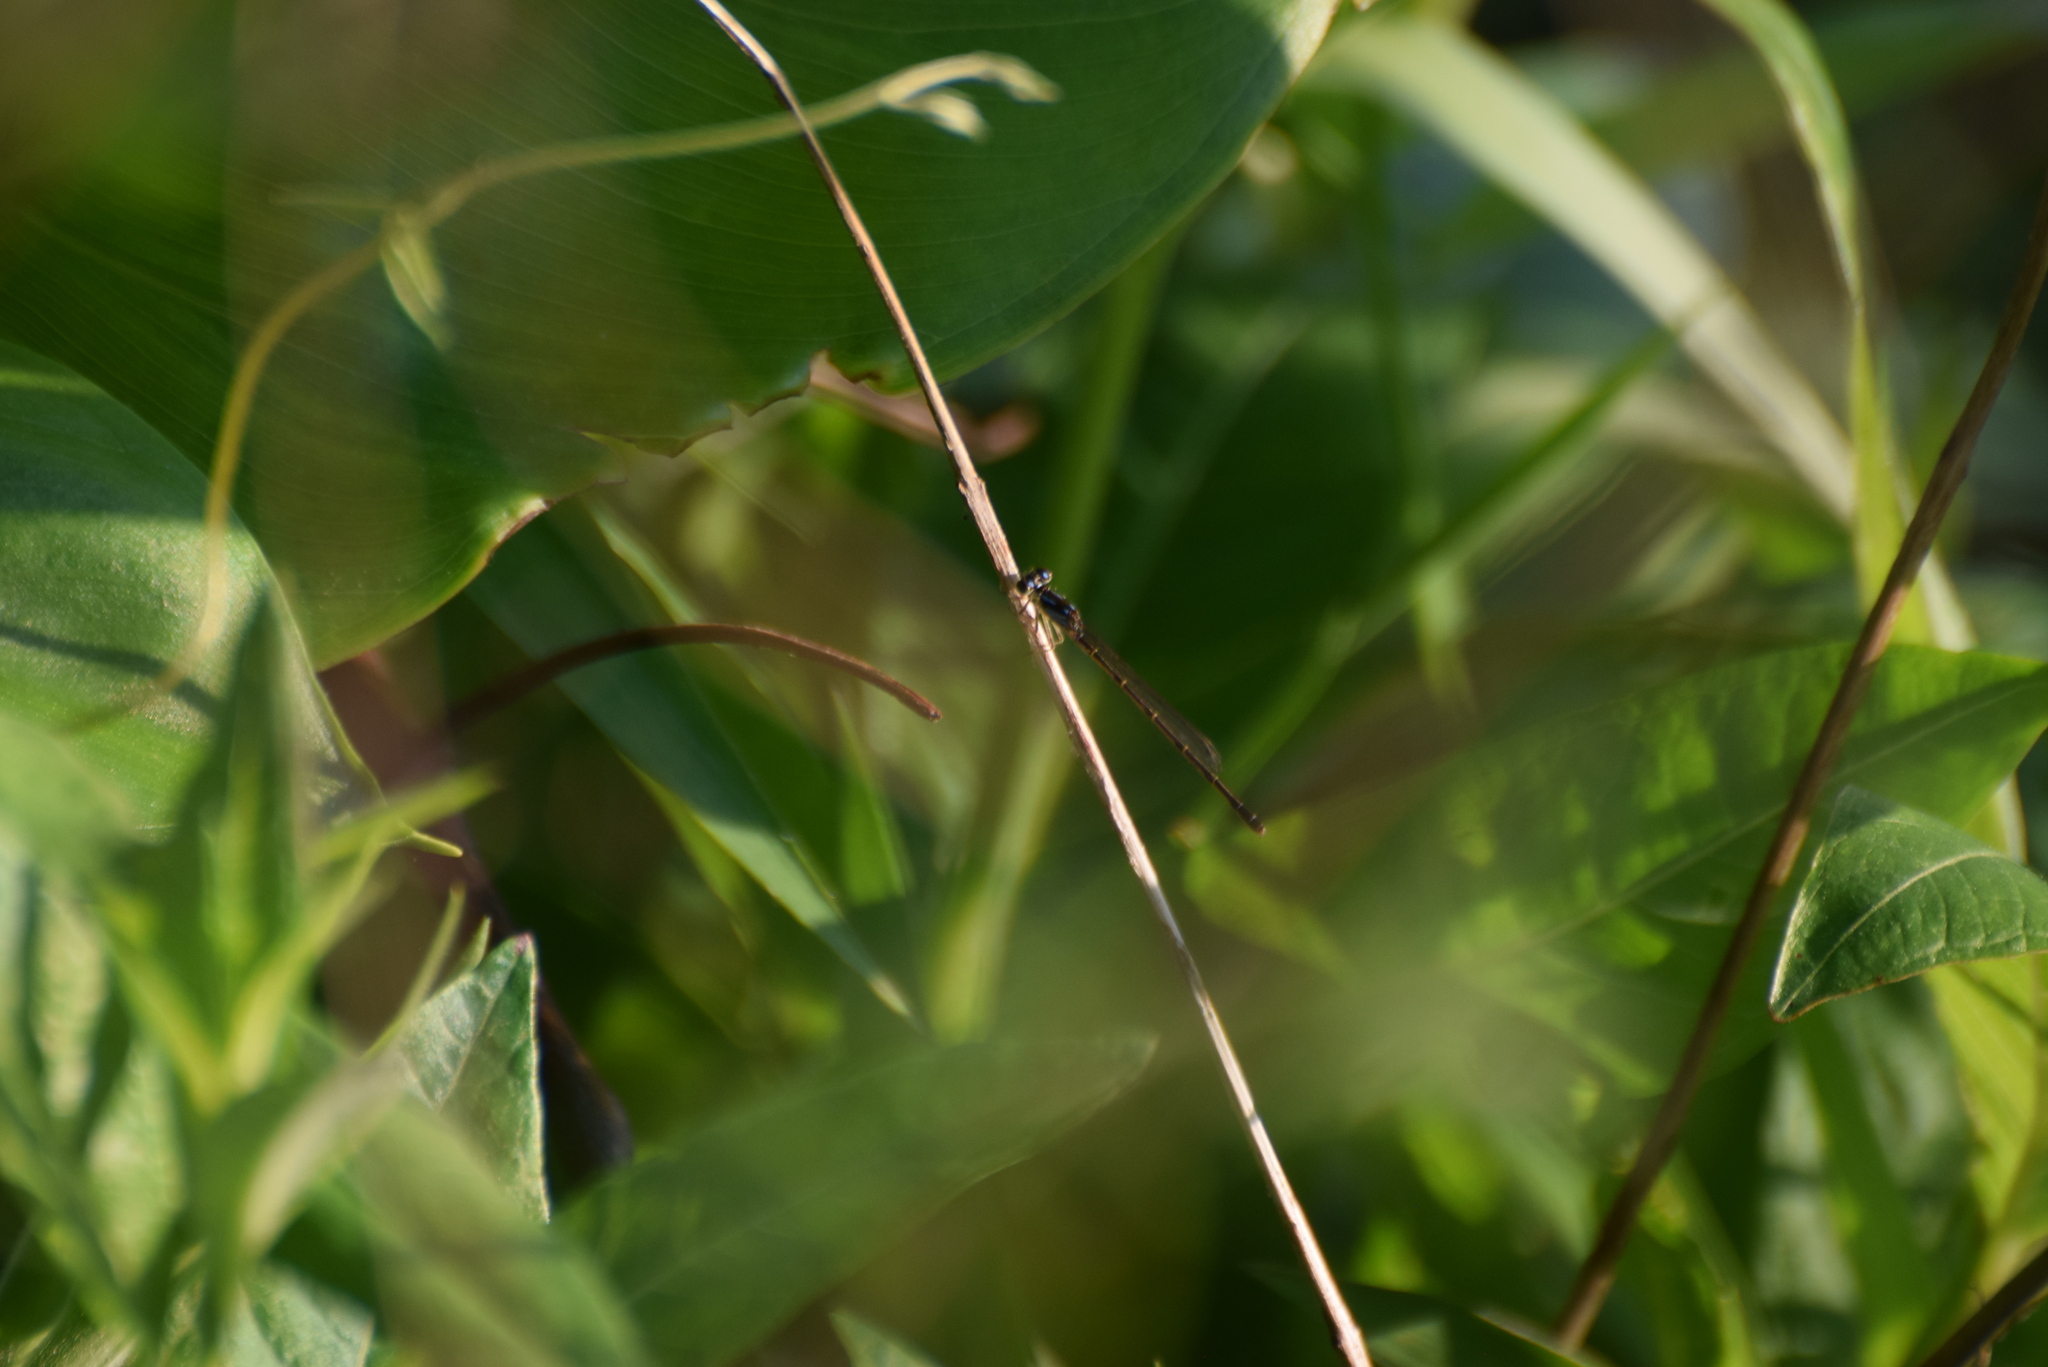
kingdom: Animalia
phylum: Arthropoda
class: Insecta
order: Odonata
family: Coenagrionidae
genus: Ischnura
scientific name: Ischnura posita
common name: Fragile forktail
